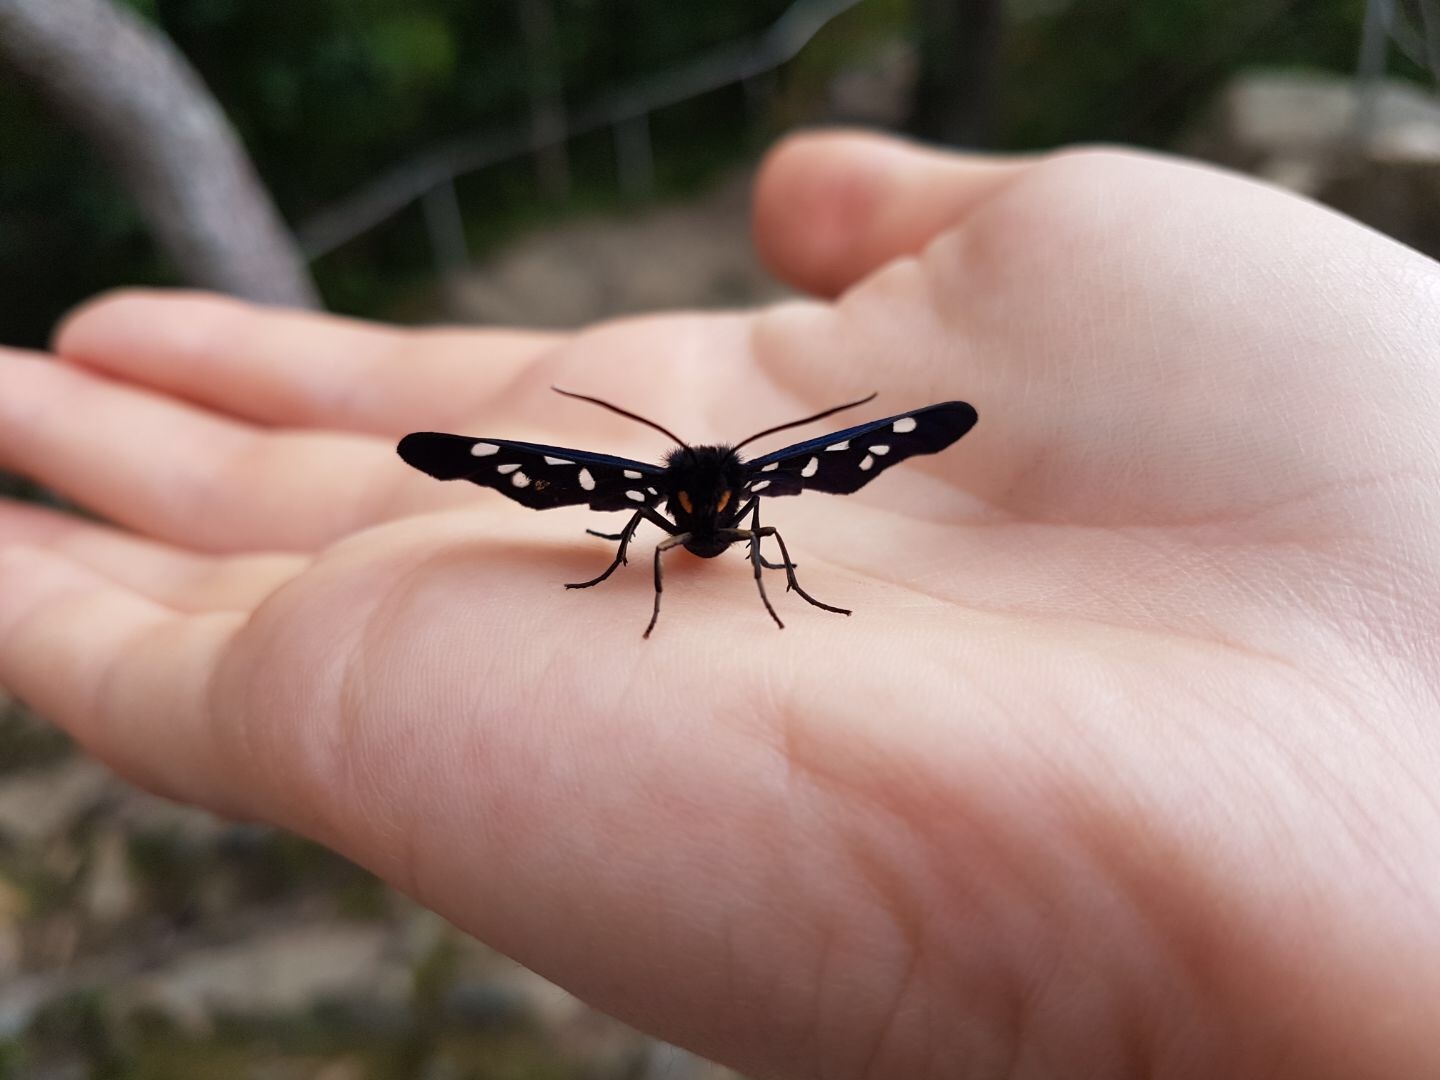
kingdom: Animalia
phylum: Arthropoda
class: Insecta
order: Lepidoptera
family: Erebidae
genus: Amata
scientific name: Amata phegea
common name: Nine-spotted
